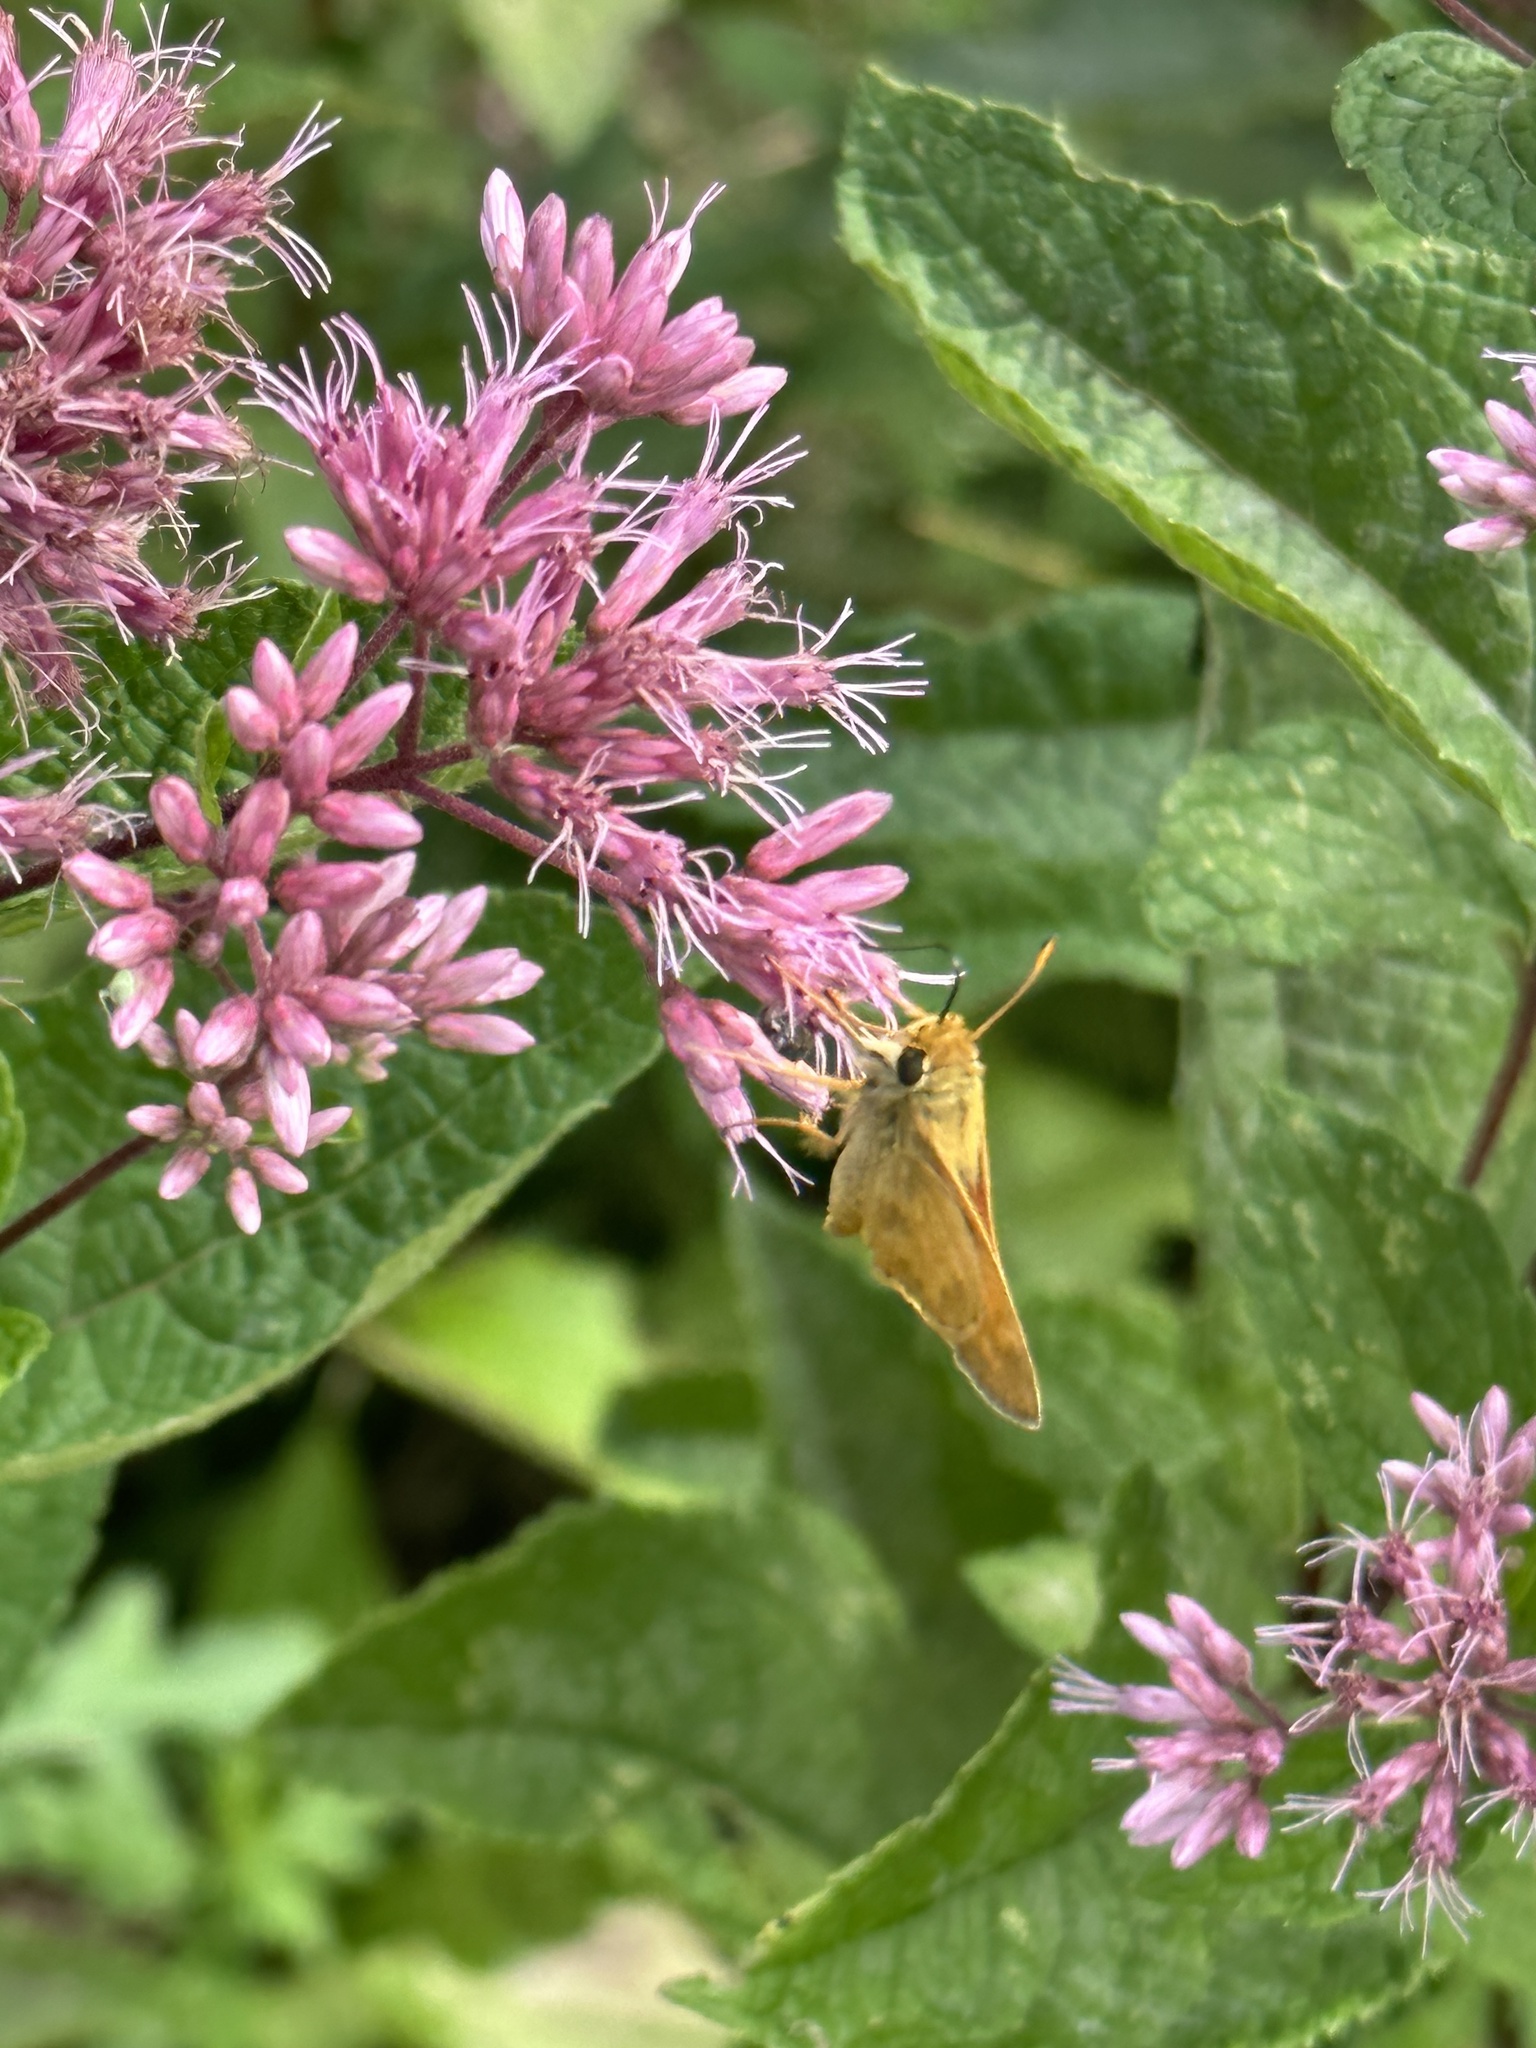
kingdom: Animalia
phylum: Arthropoda
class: Insecta
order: Lepidoptera
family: Hesperiidae
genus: Atalopedes
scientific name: Atalopedes
